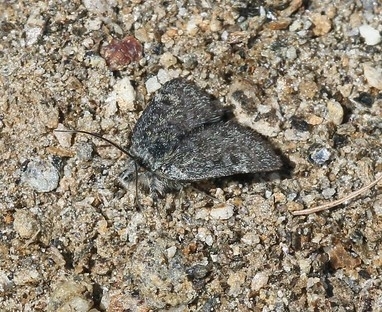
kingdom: Animalia
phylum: Arthropoda
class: Insecta
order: Lepidoptera
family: Crambidae
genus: Metaxmeste
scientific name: Metaxmeste phrygialis
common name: Black mountain pearl
